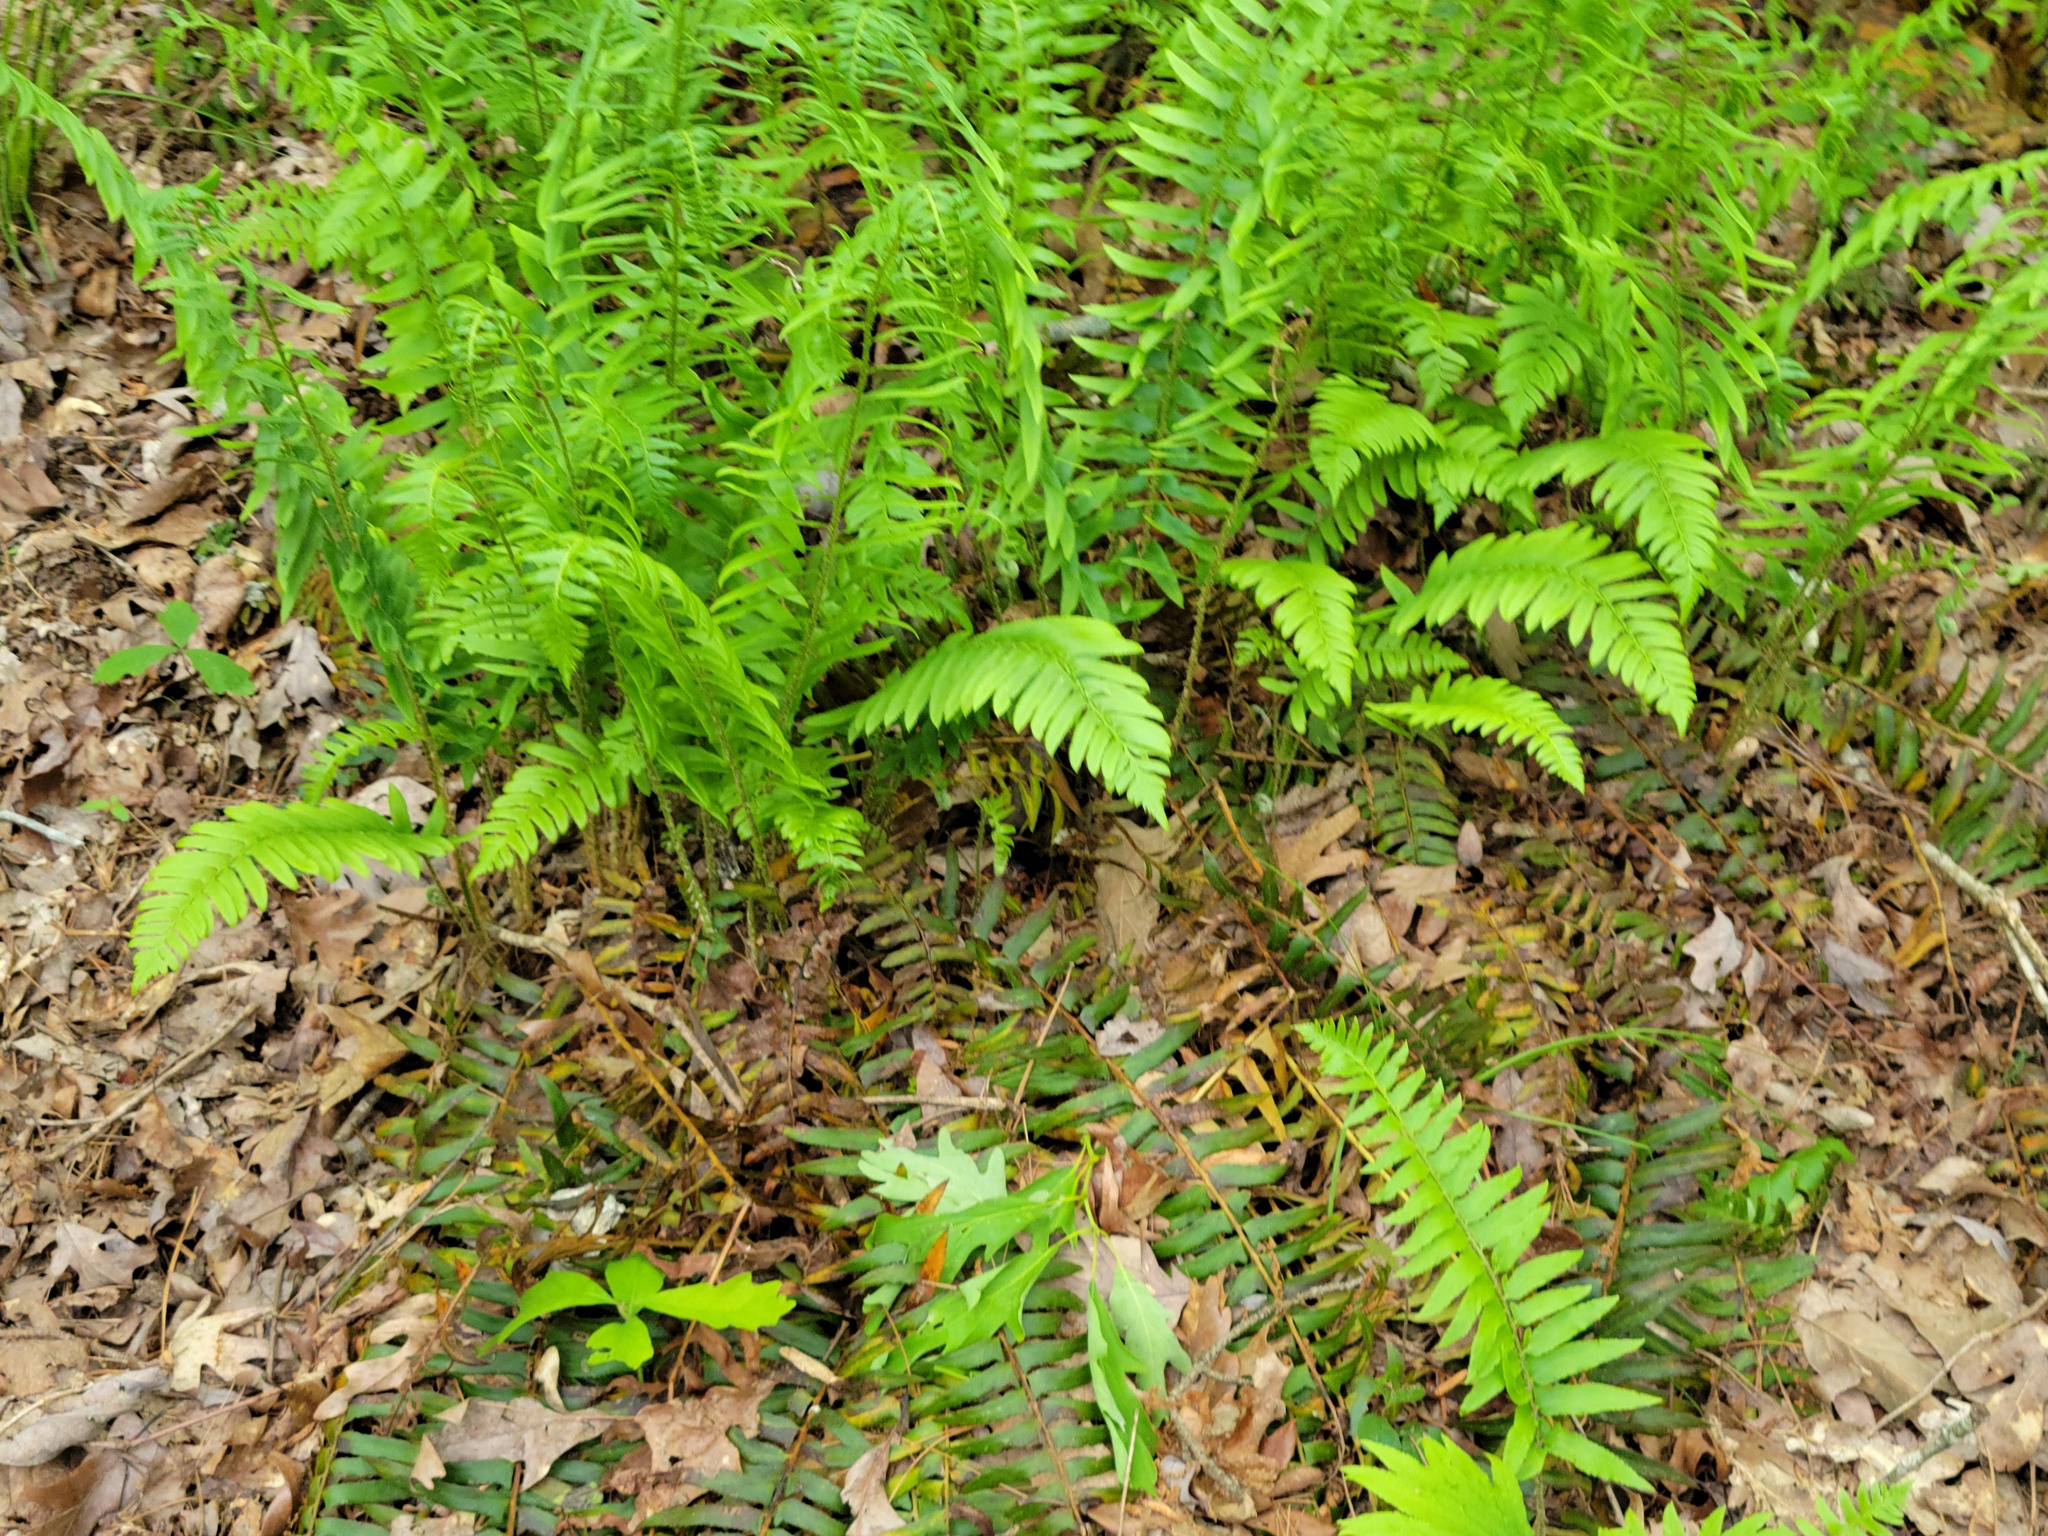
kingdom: Plantae
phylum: Tracheophyta
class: Polypodiopsida
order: Polypodiales
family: Dryopteridaceae
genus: Polystichum
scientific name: Polystichum acrostichoides
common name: Christmas fern
